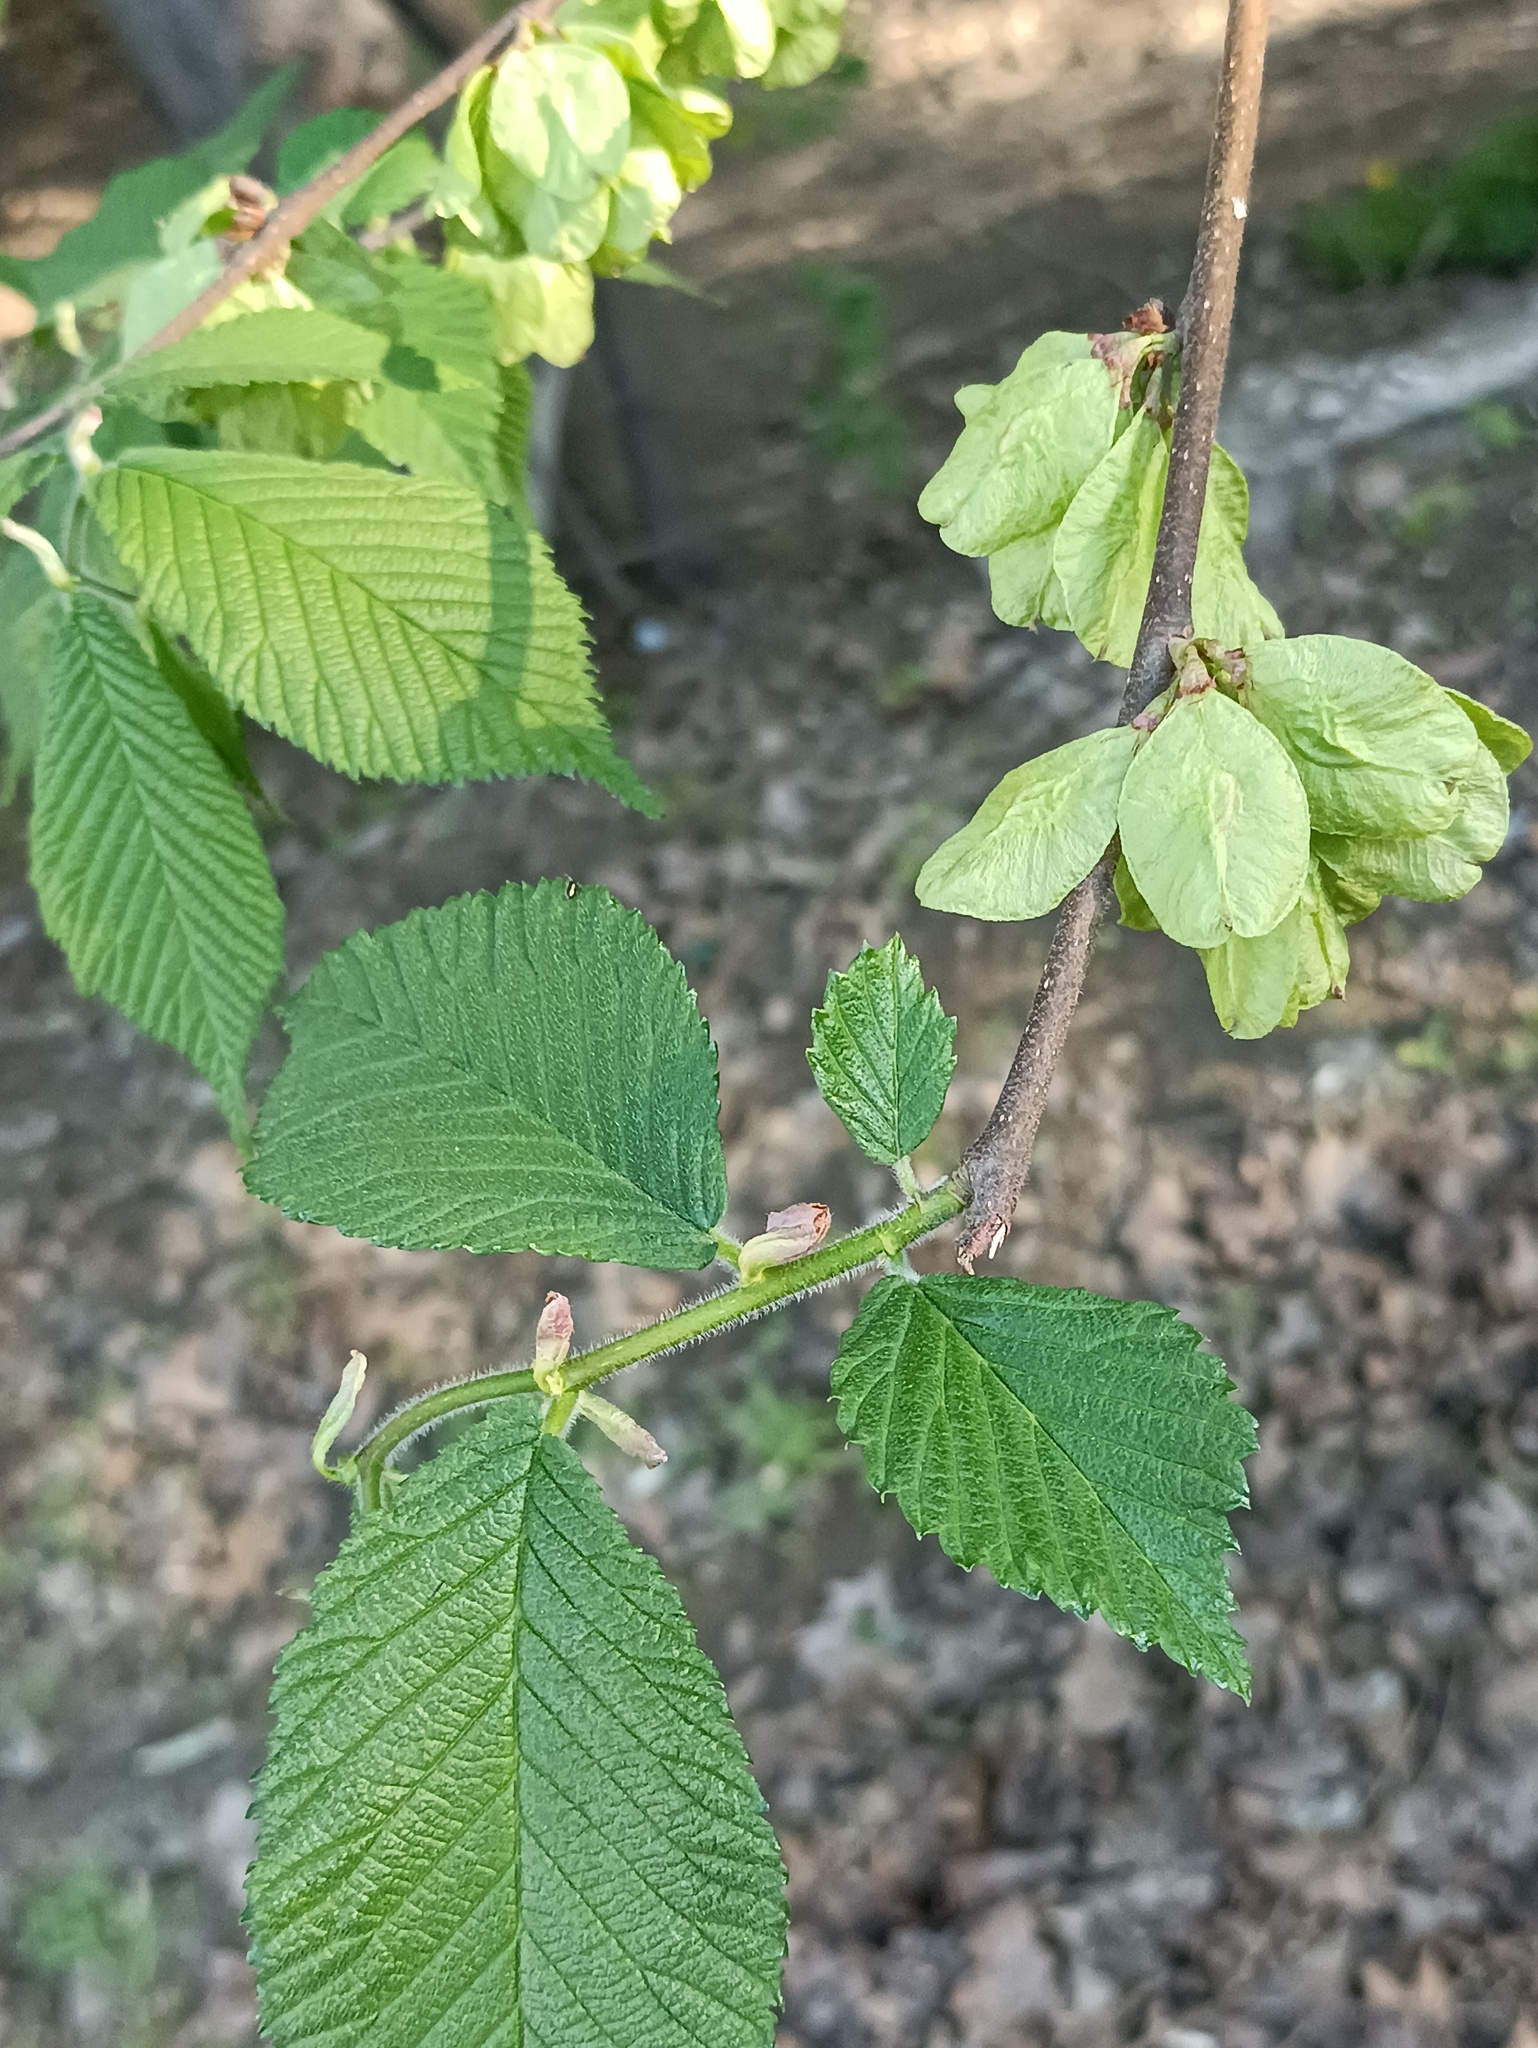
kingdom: Plantae
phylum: Tracheophyta
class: Magnoliopsida
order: Rosales
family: Ulmaceae
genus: Ulmus
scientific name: Ulmus glabra
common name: Wych elm
